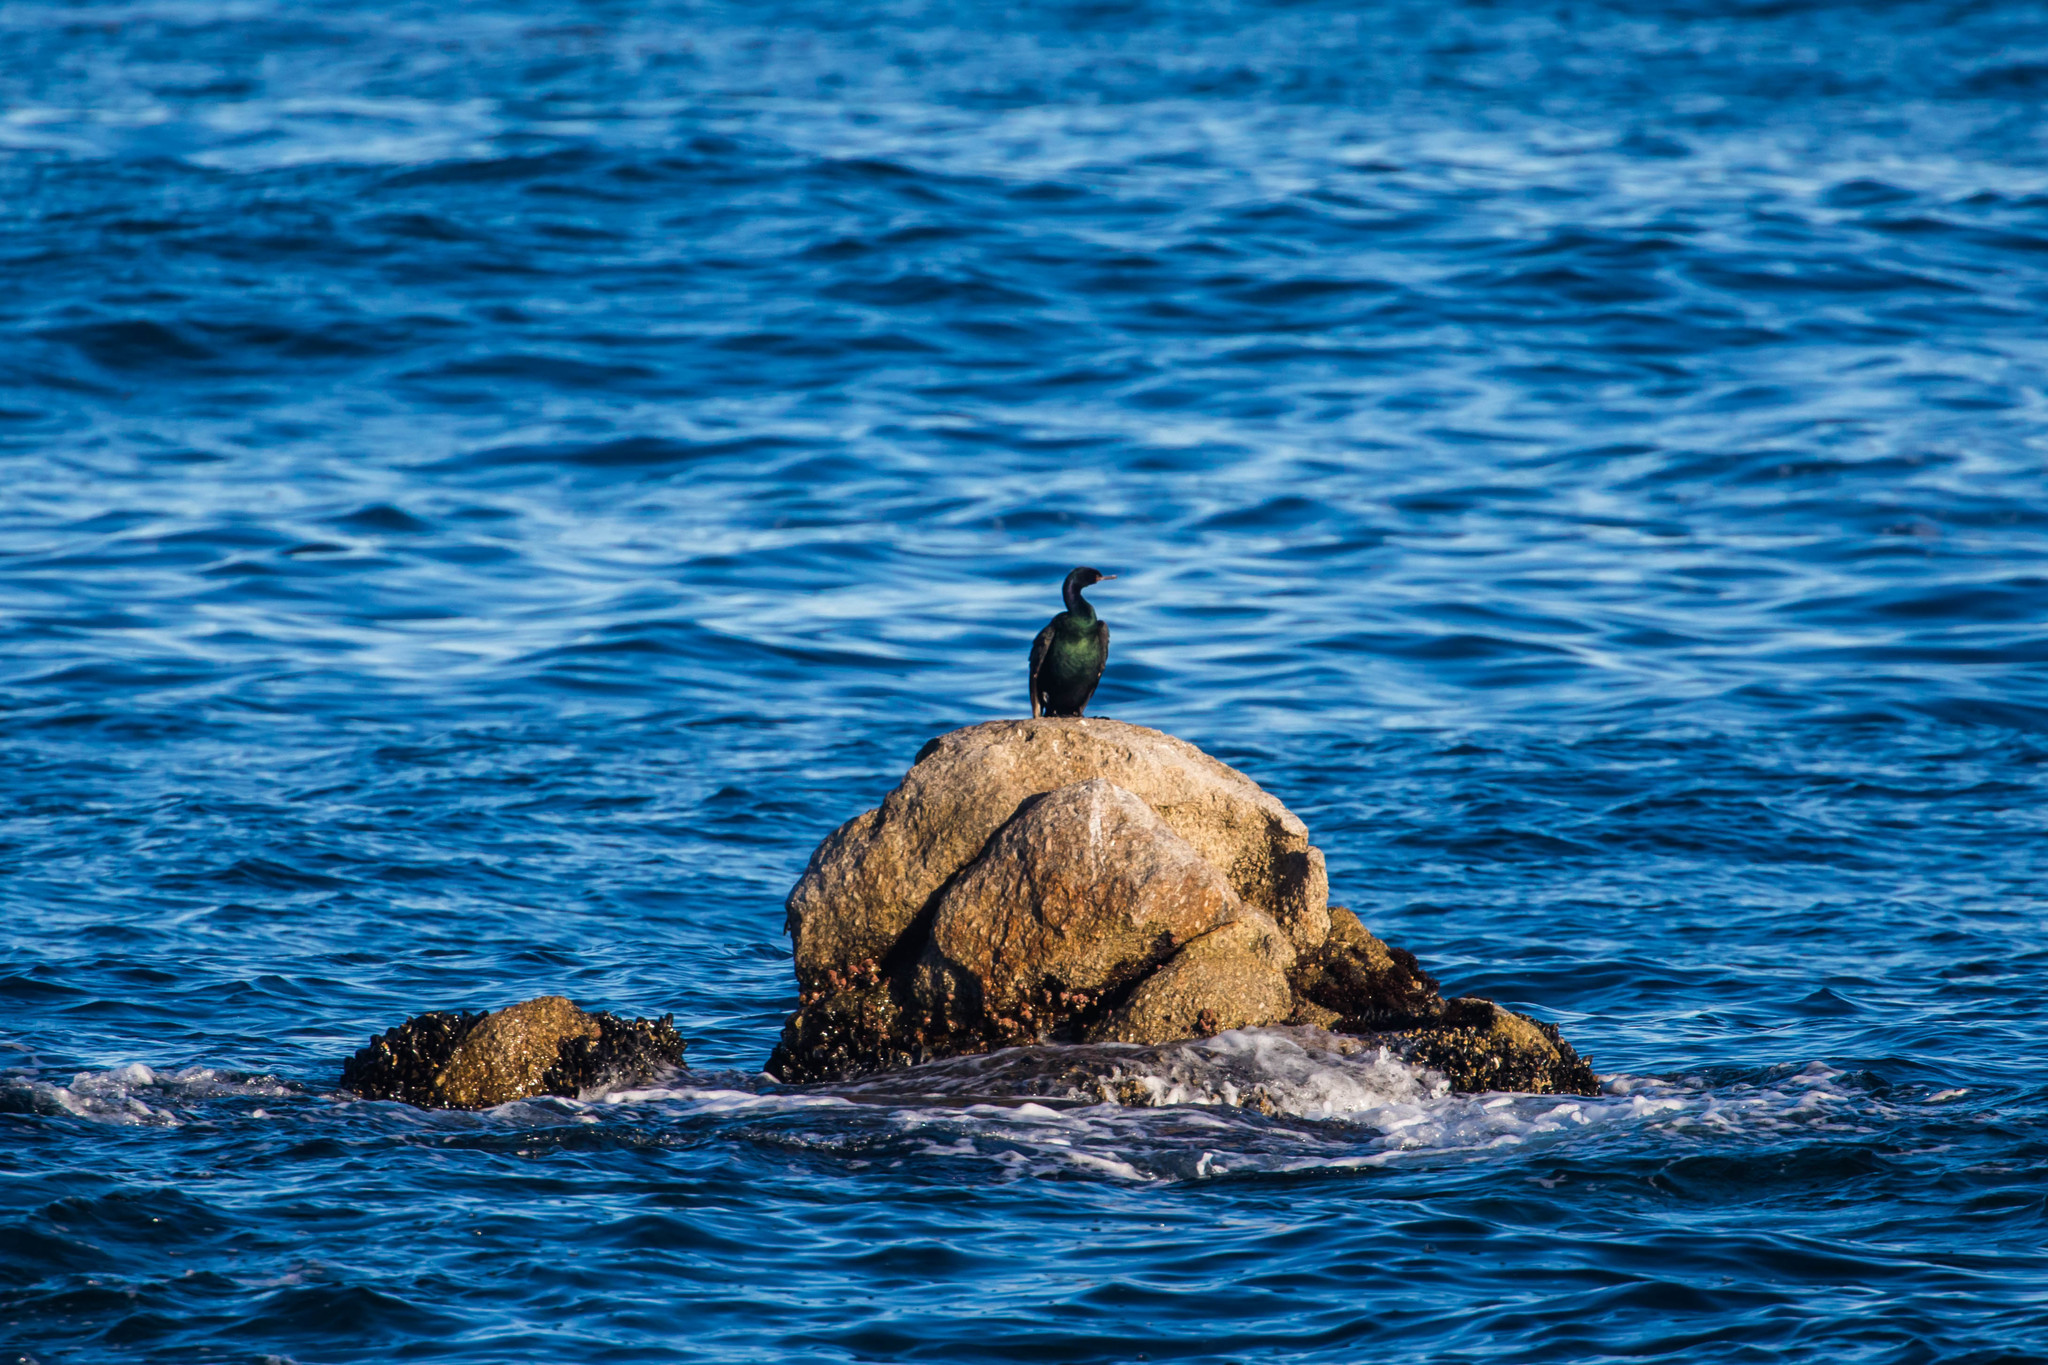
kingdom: Animalia
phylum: Chordata
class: Aves
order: Suliformes
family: Phalacrocoracidae
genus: Phalacrocorax
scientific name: Phalacrocorax pelagicus
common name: Pelagic cormorant
